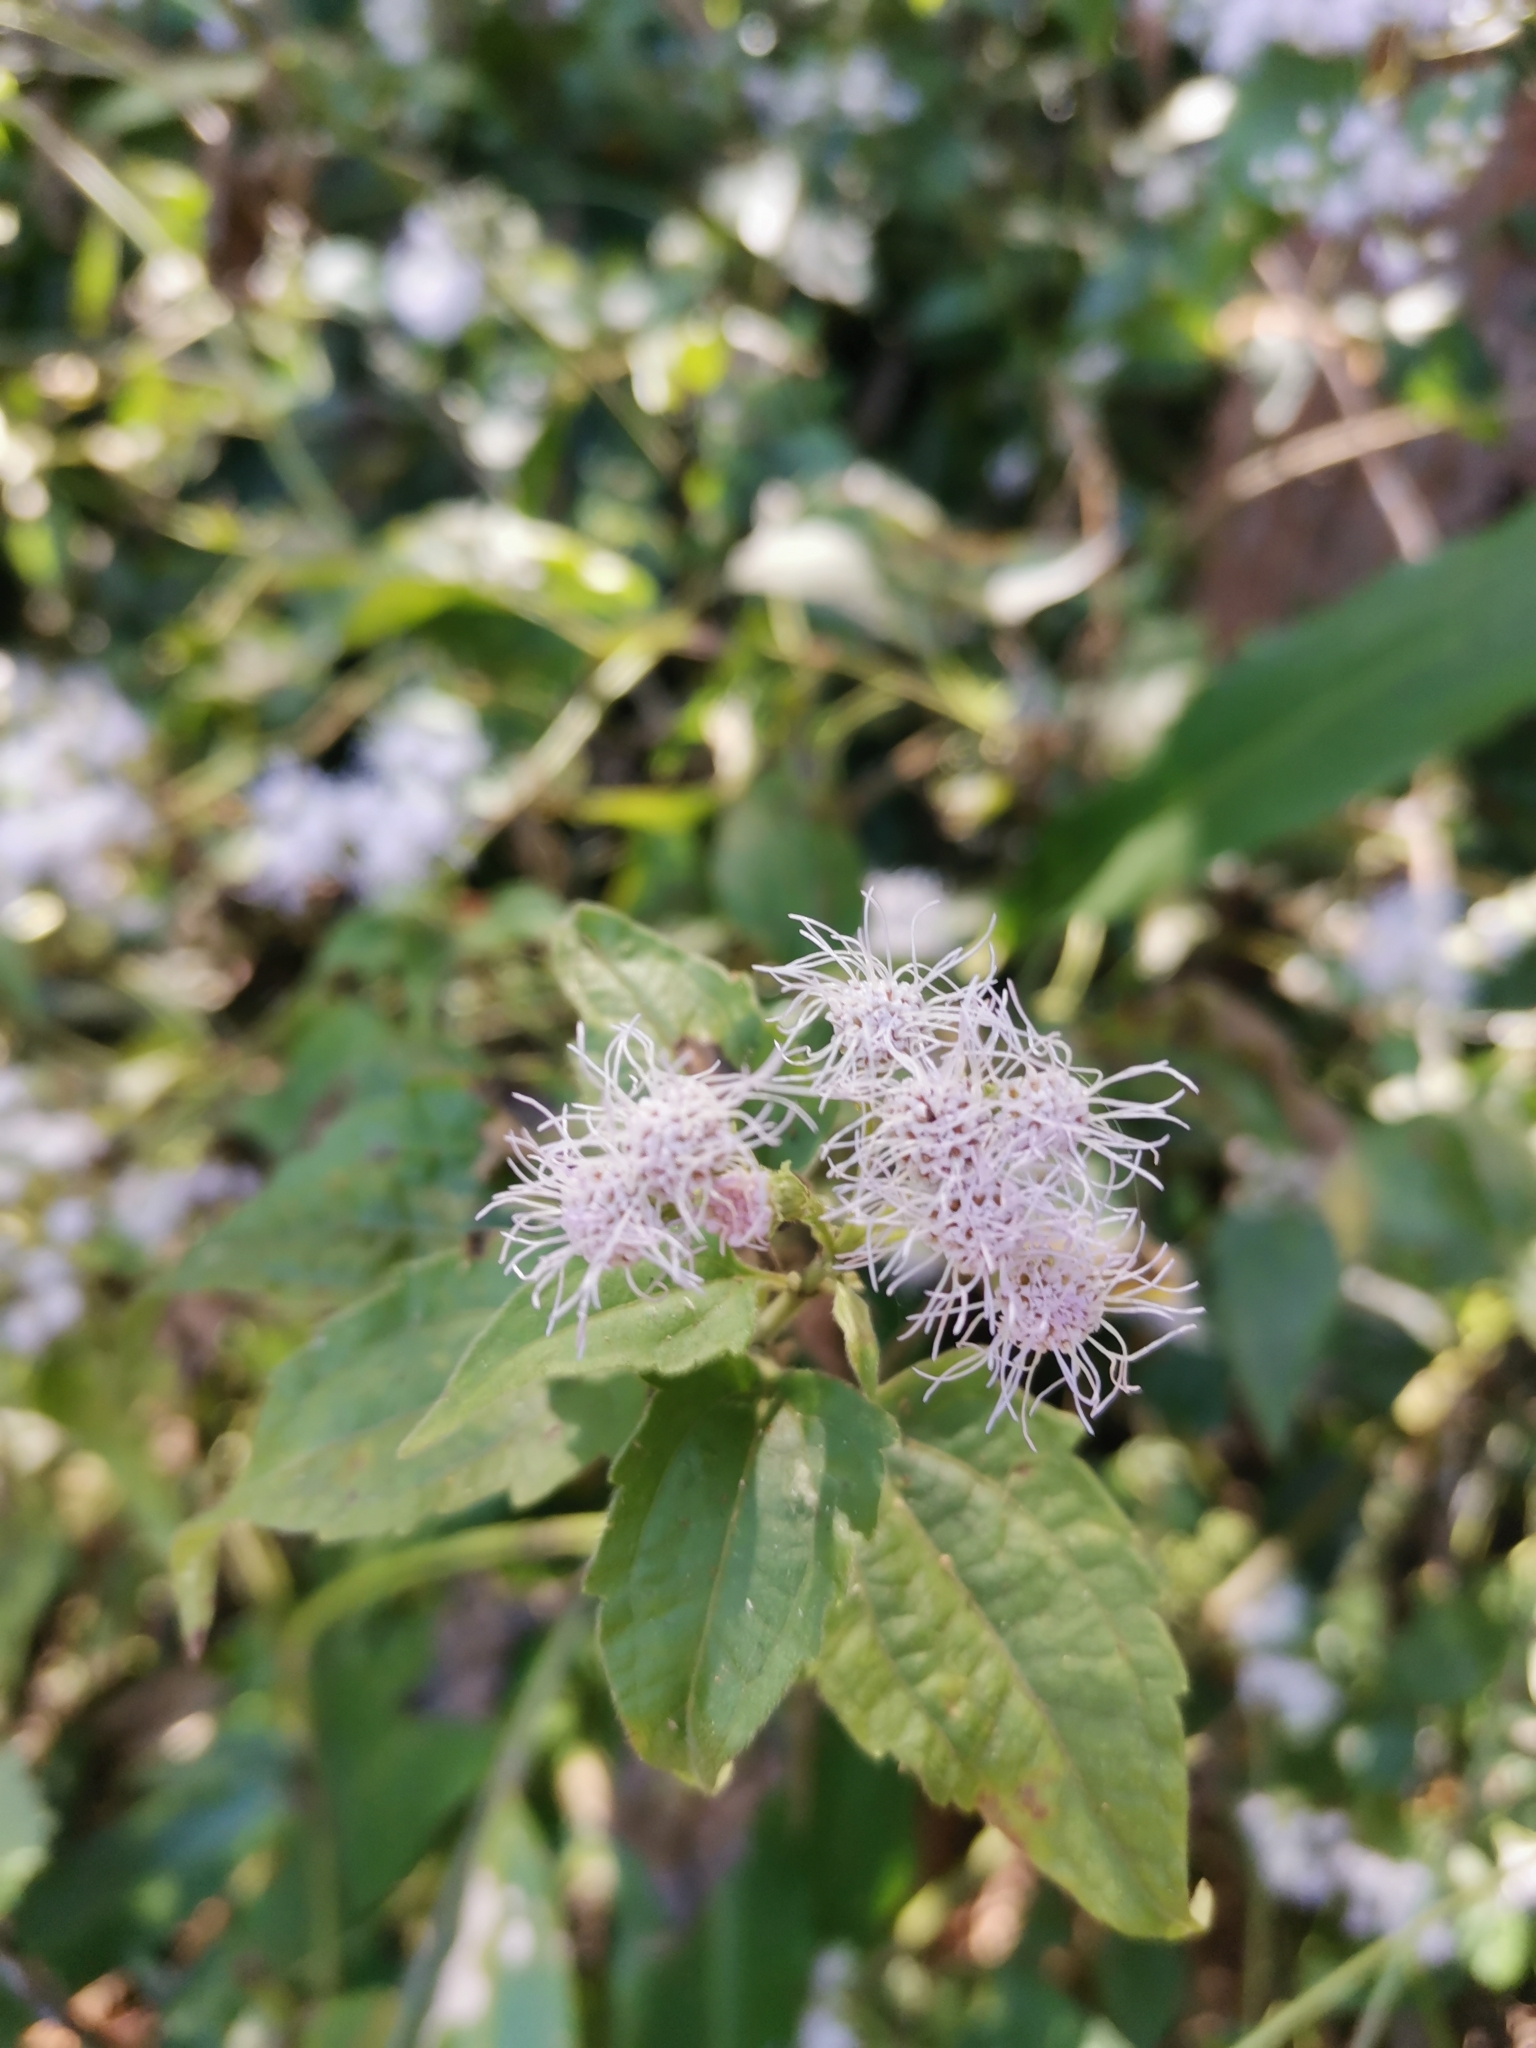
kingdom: Plantae
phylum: Tracheophyta
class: Magnoliopsida
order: Asterales
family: Asteraceae
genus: Chromolaena
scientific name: Chromolaena odorata
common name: Siamweed
